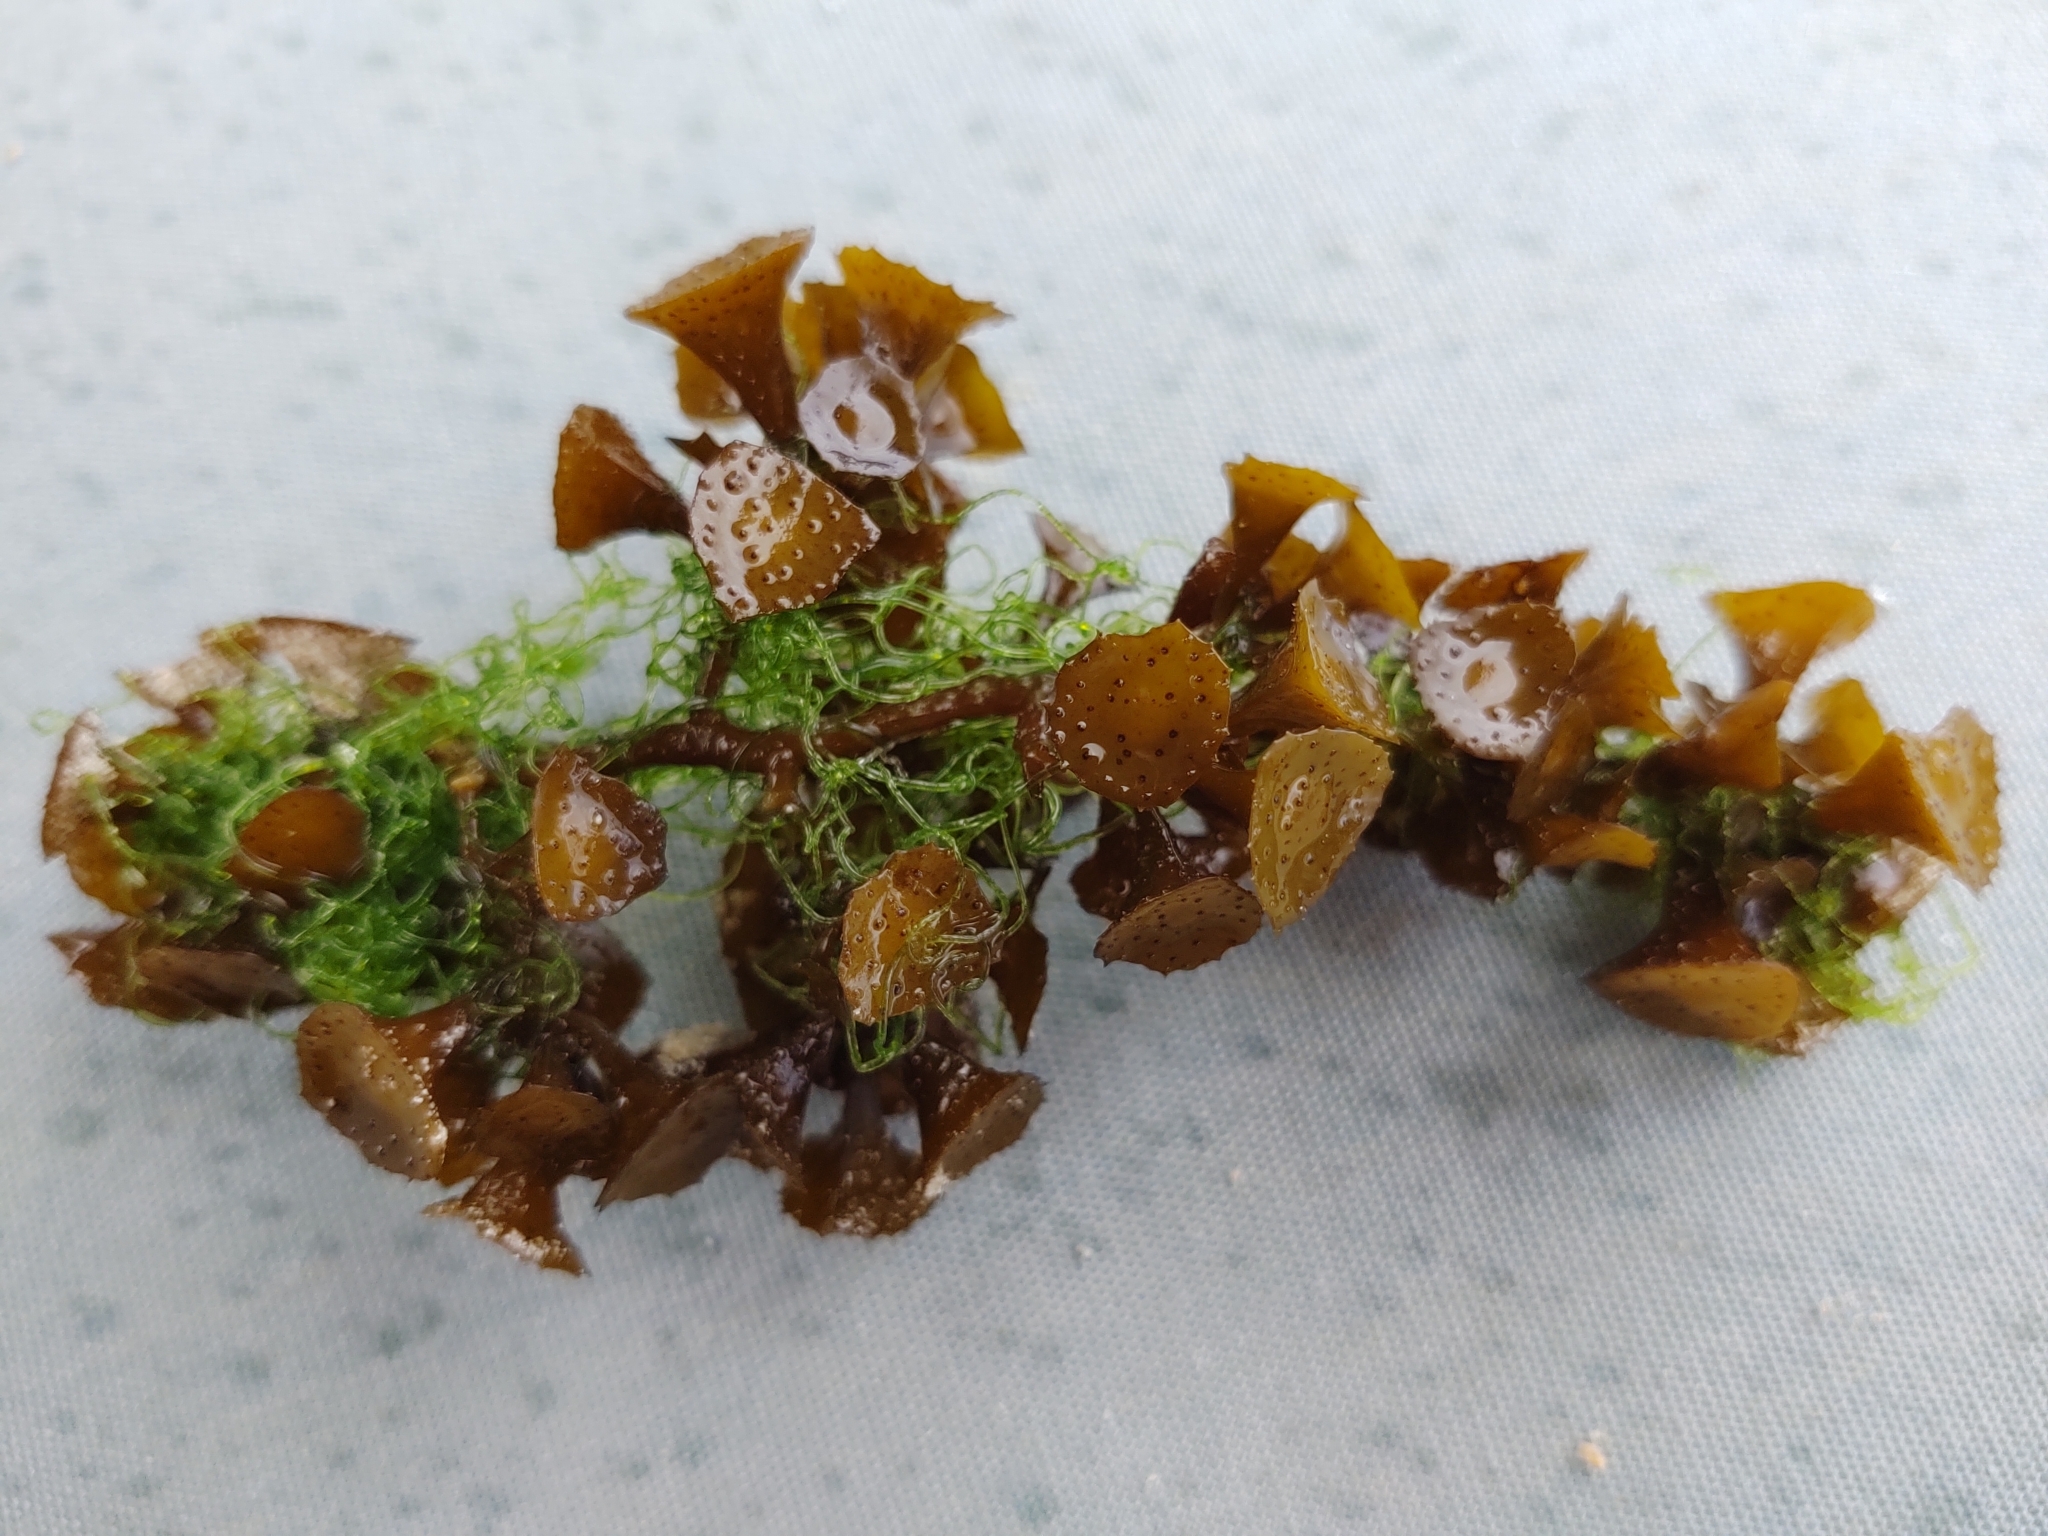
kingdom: Chromista
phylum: Ochrophyta
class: Phaeophyceae
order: Fucales
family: Sargassaceae
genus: Turbinaria
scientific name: Turbinaria turbinata
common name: Blistered saucer leaf algae
